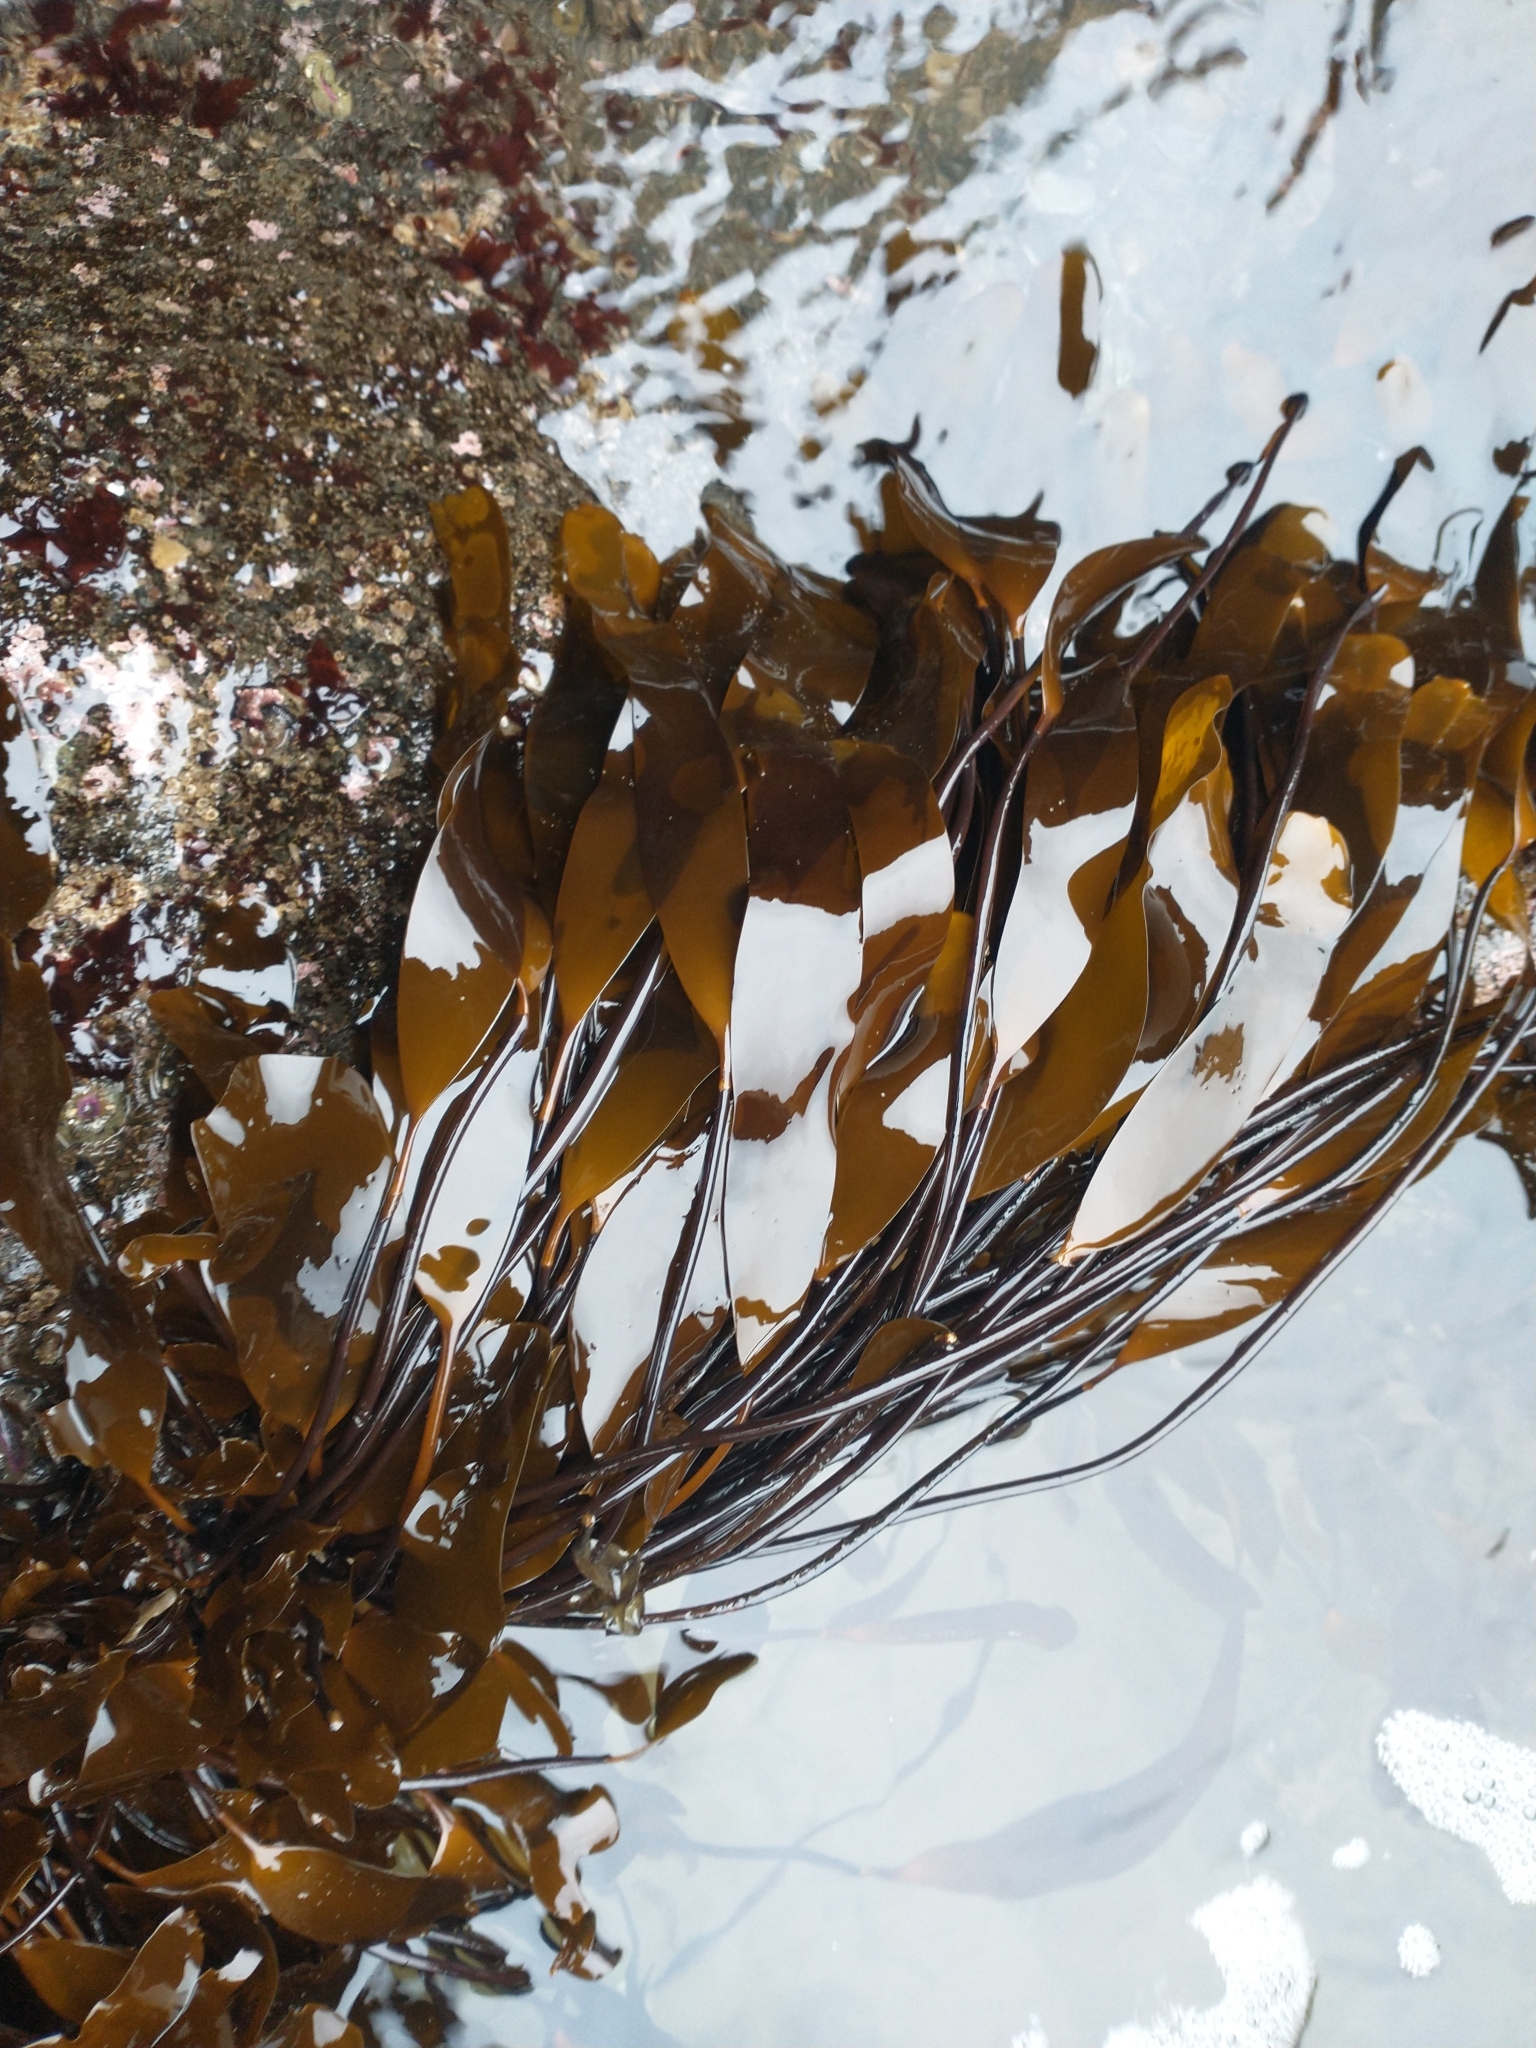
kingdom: Chromista
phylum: Ochrophyta
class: Phaeophyceae
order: Laminariales
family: Laminariaceae
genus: Laminaria
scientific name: Laminaria sinclairii
